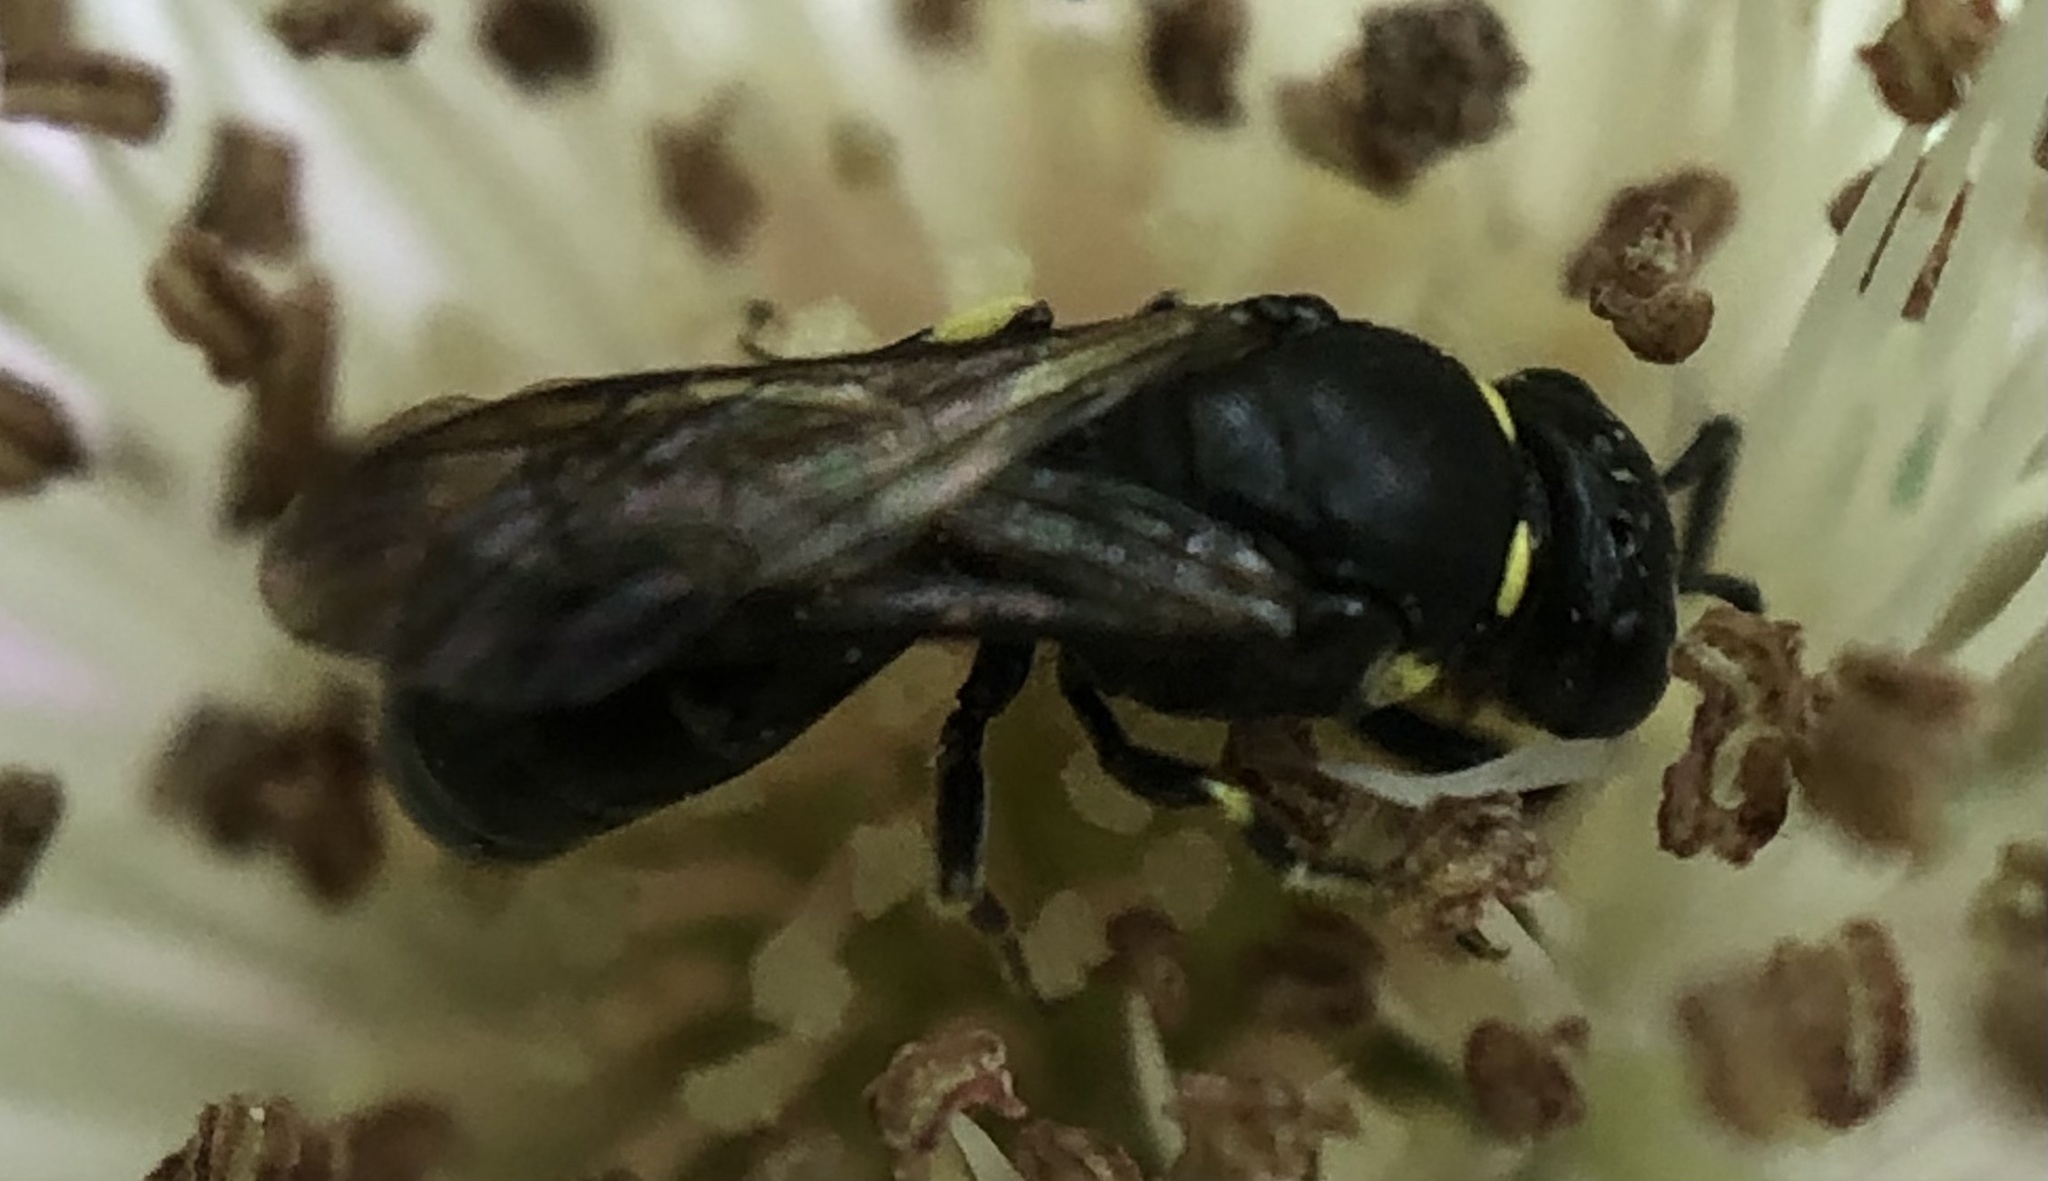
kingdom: Animalia
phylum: Arthropoda
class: Insecta
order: Hymenoptera
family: Colletidae
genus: Hylaeus
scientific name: Hylaeus modestus
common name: Yellow-faced bee
